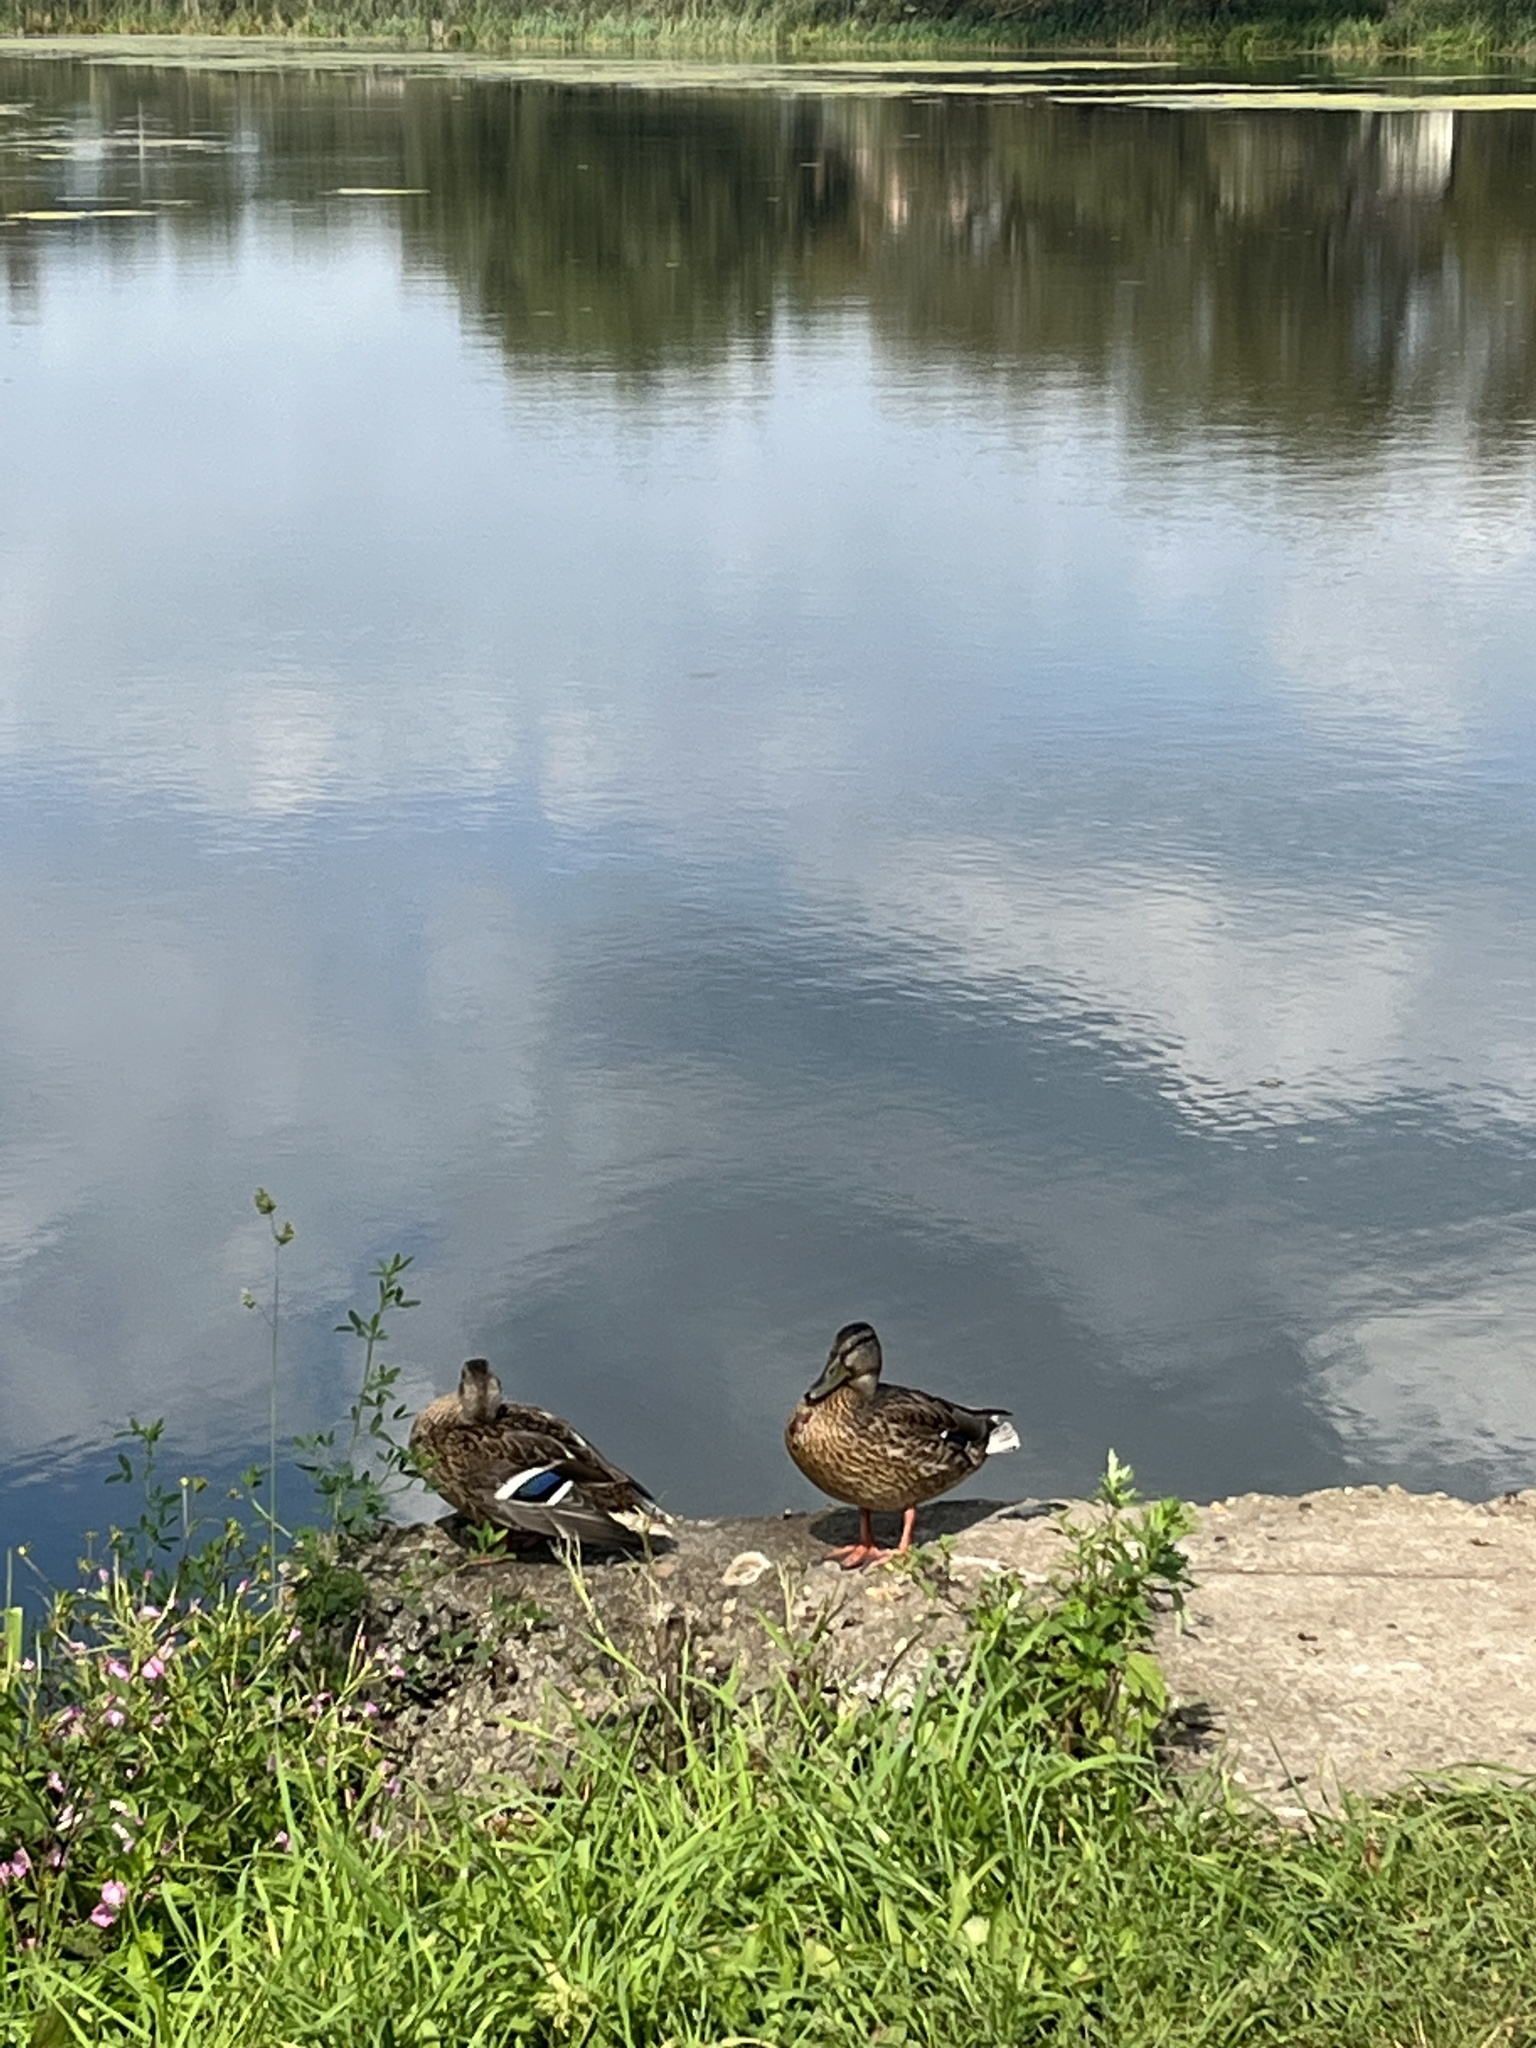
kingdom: Animalia
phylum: Chordata
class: Aves
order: Anseriformes
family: Anatidae
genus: Anas
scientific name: Anas platyrhynchos
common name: Mallard
